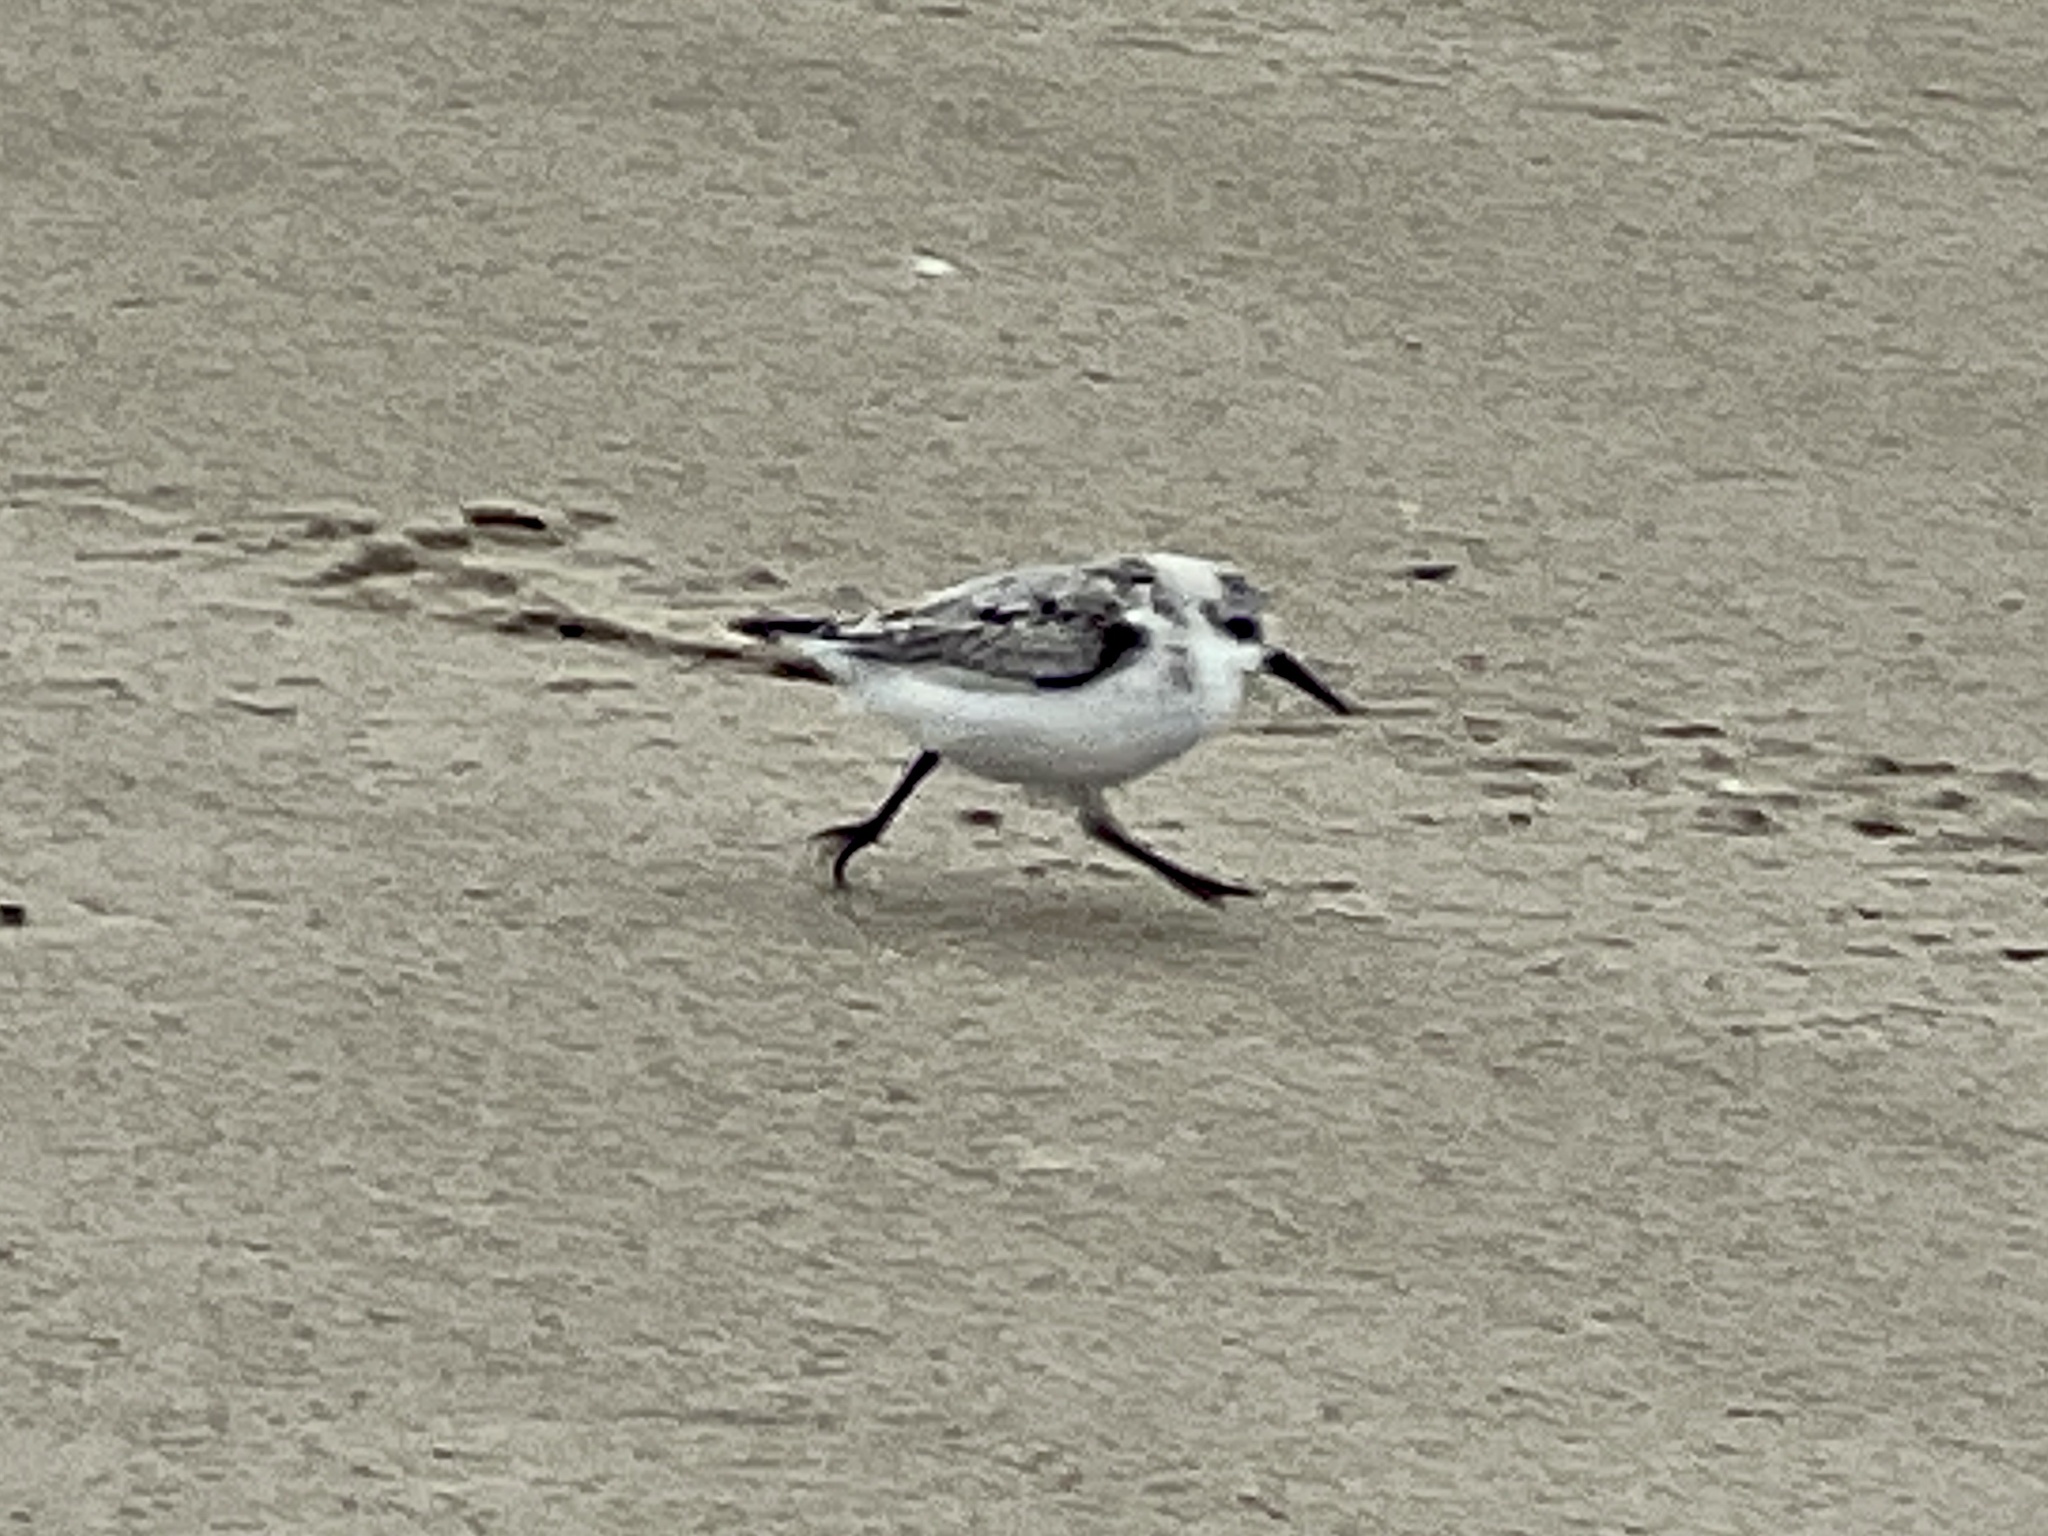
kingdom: Animalia
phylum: Chordata
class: Aves
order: Charadriiformes
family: Scolopacidae
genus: Calidris
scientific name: Calidris alba
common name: Sanderling
